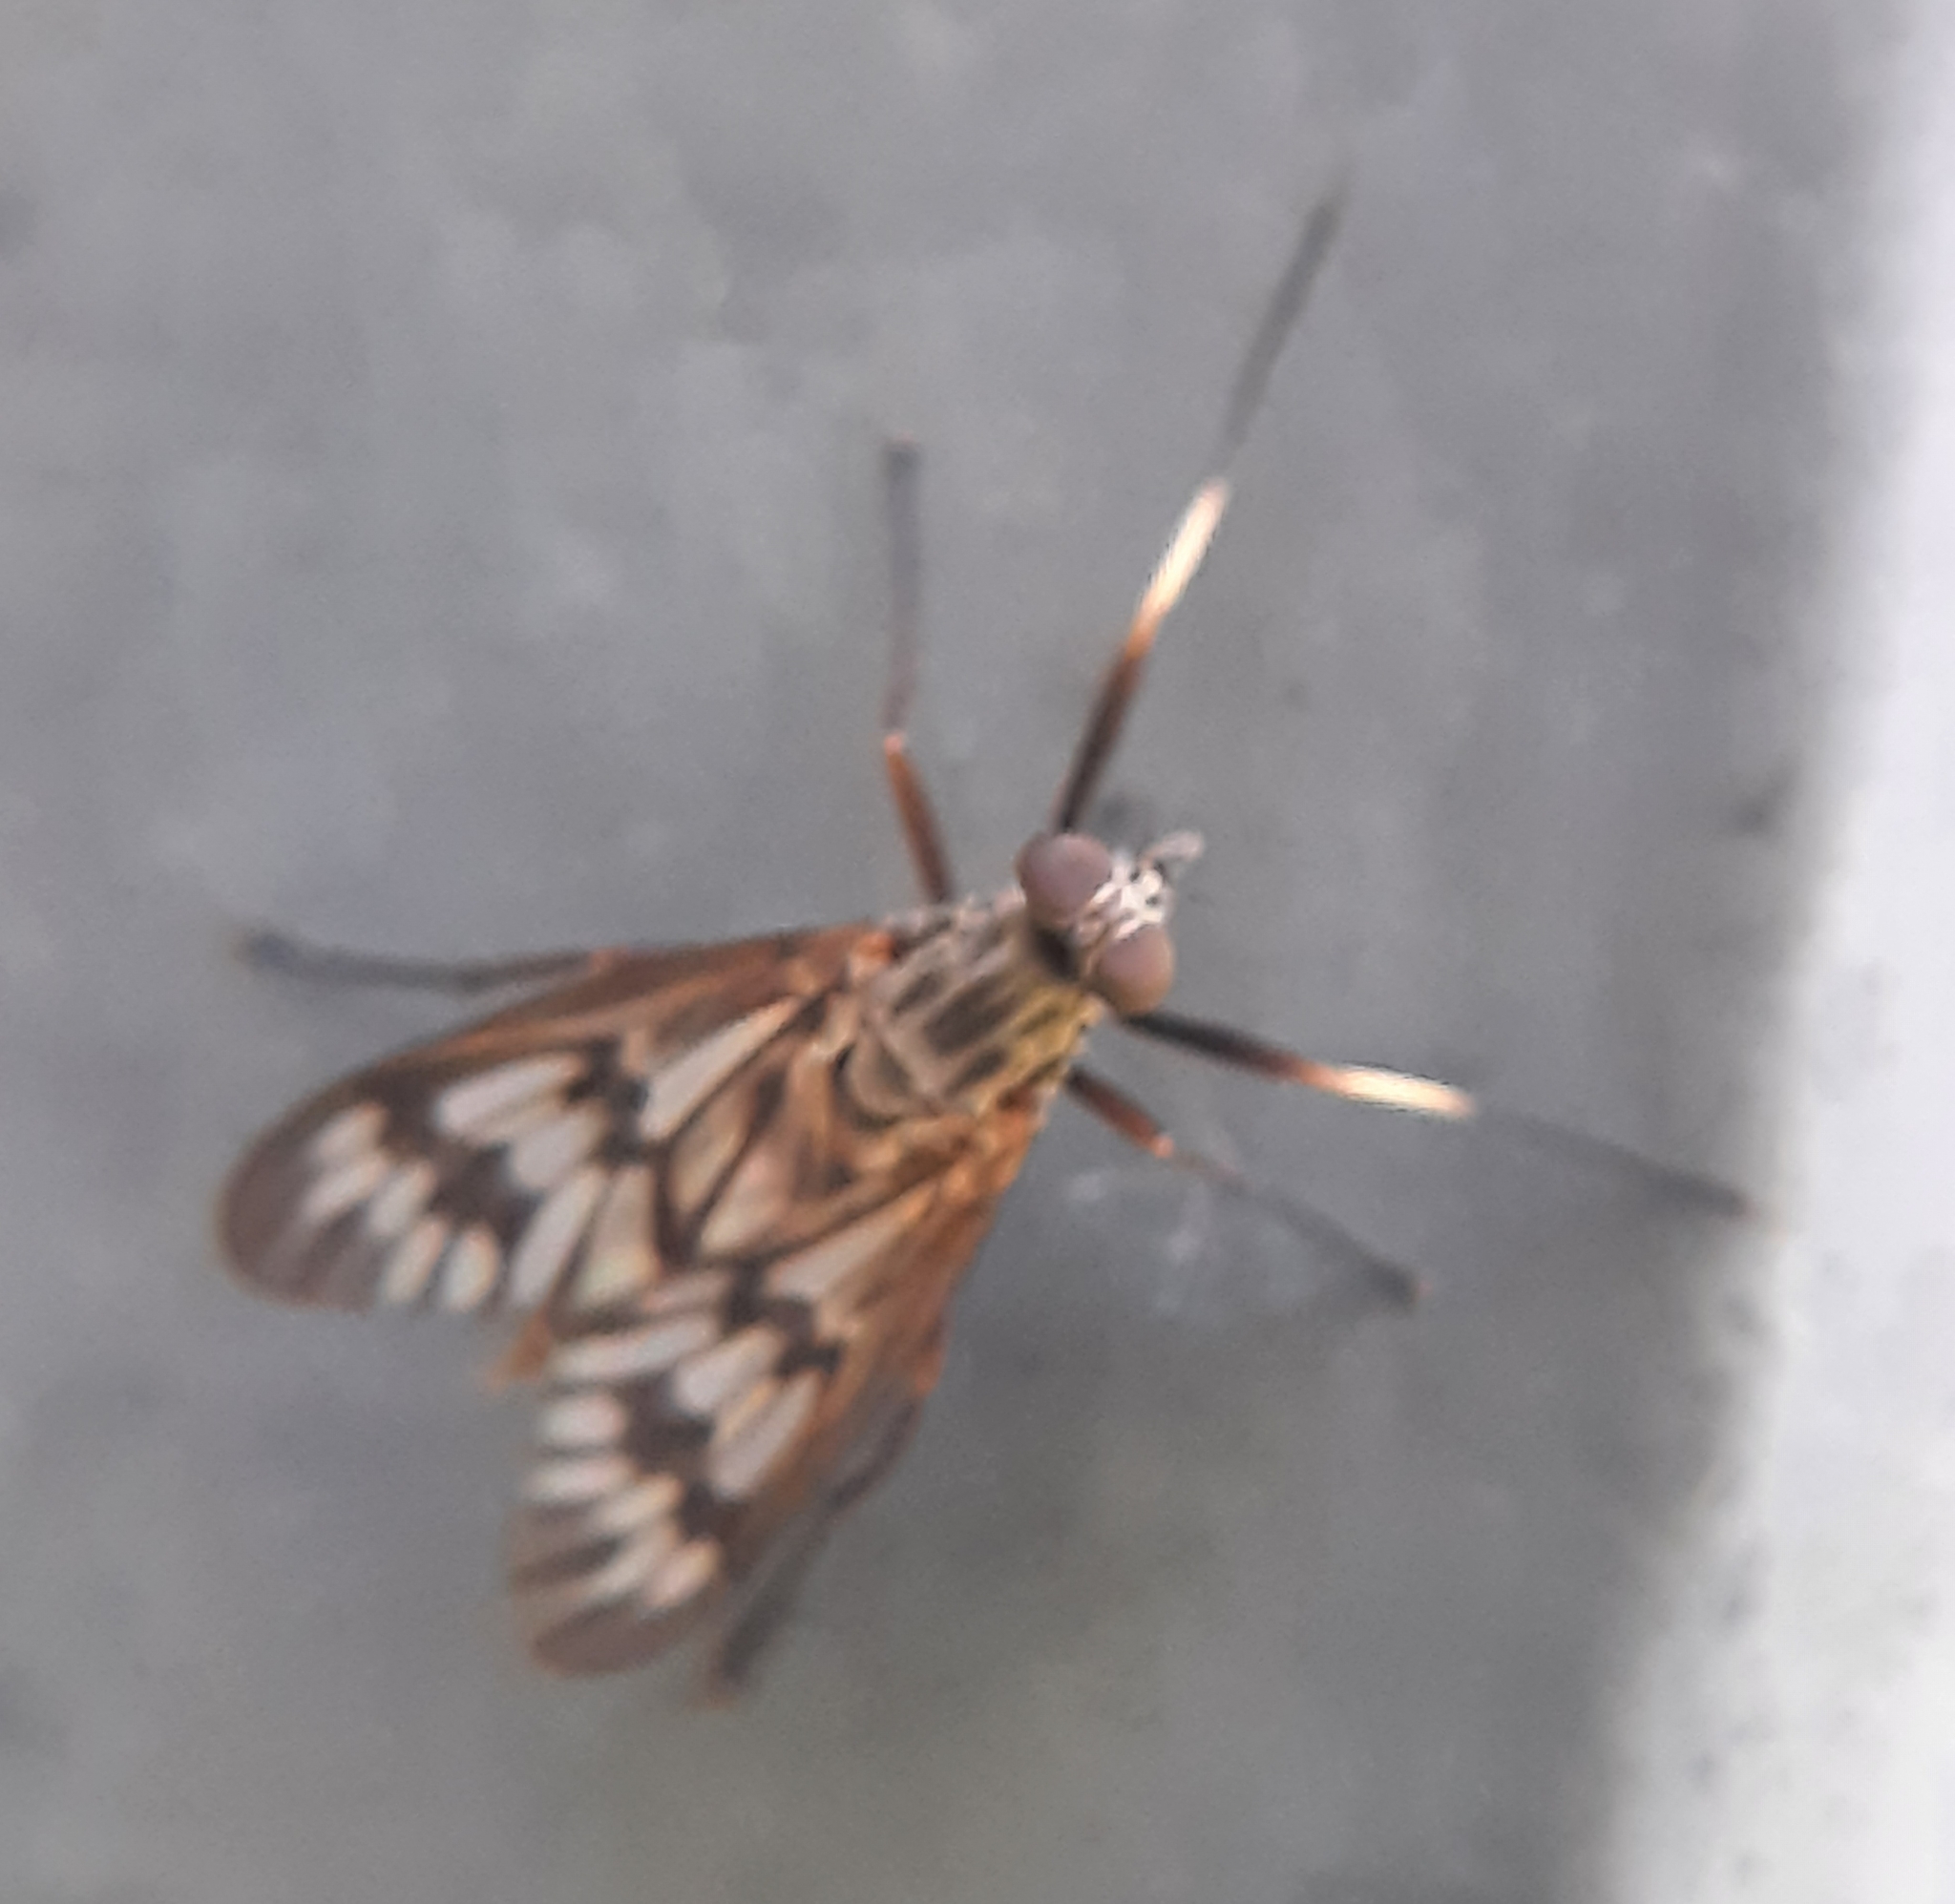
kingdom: Animalia
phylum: Arthropoda
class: Insecta
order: Diptera
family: Rhagionidae
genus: Rhagio
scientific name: Rhagio mystaceus
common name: Common snipe fly
